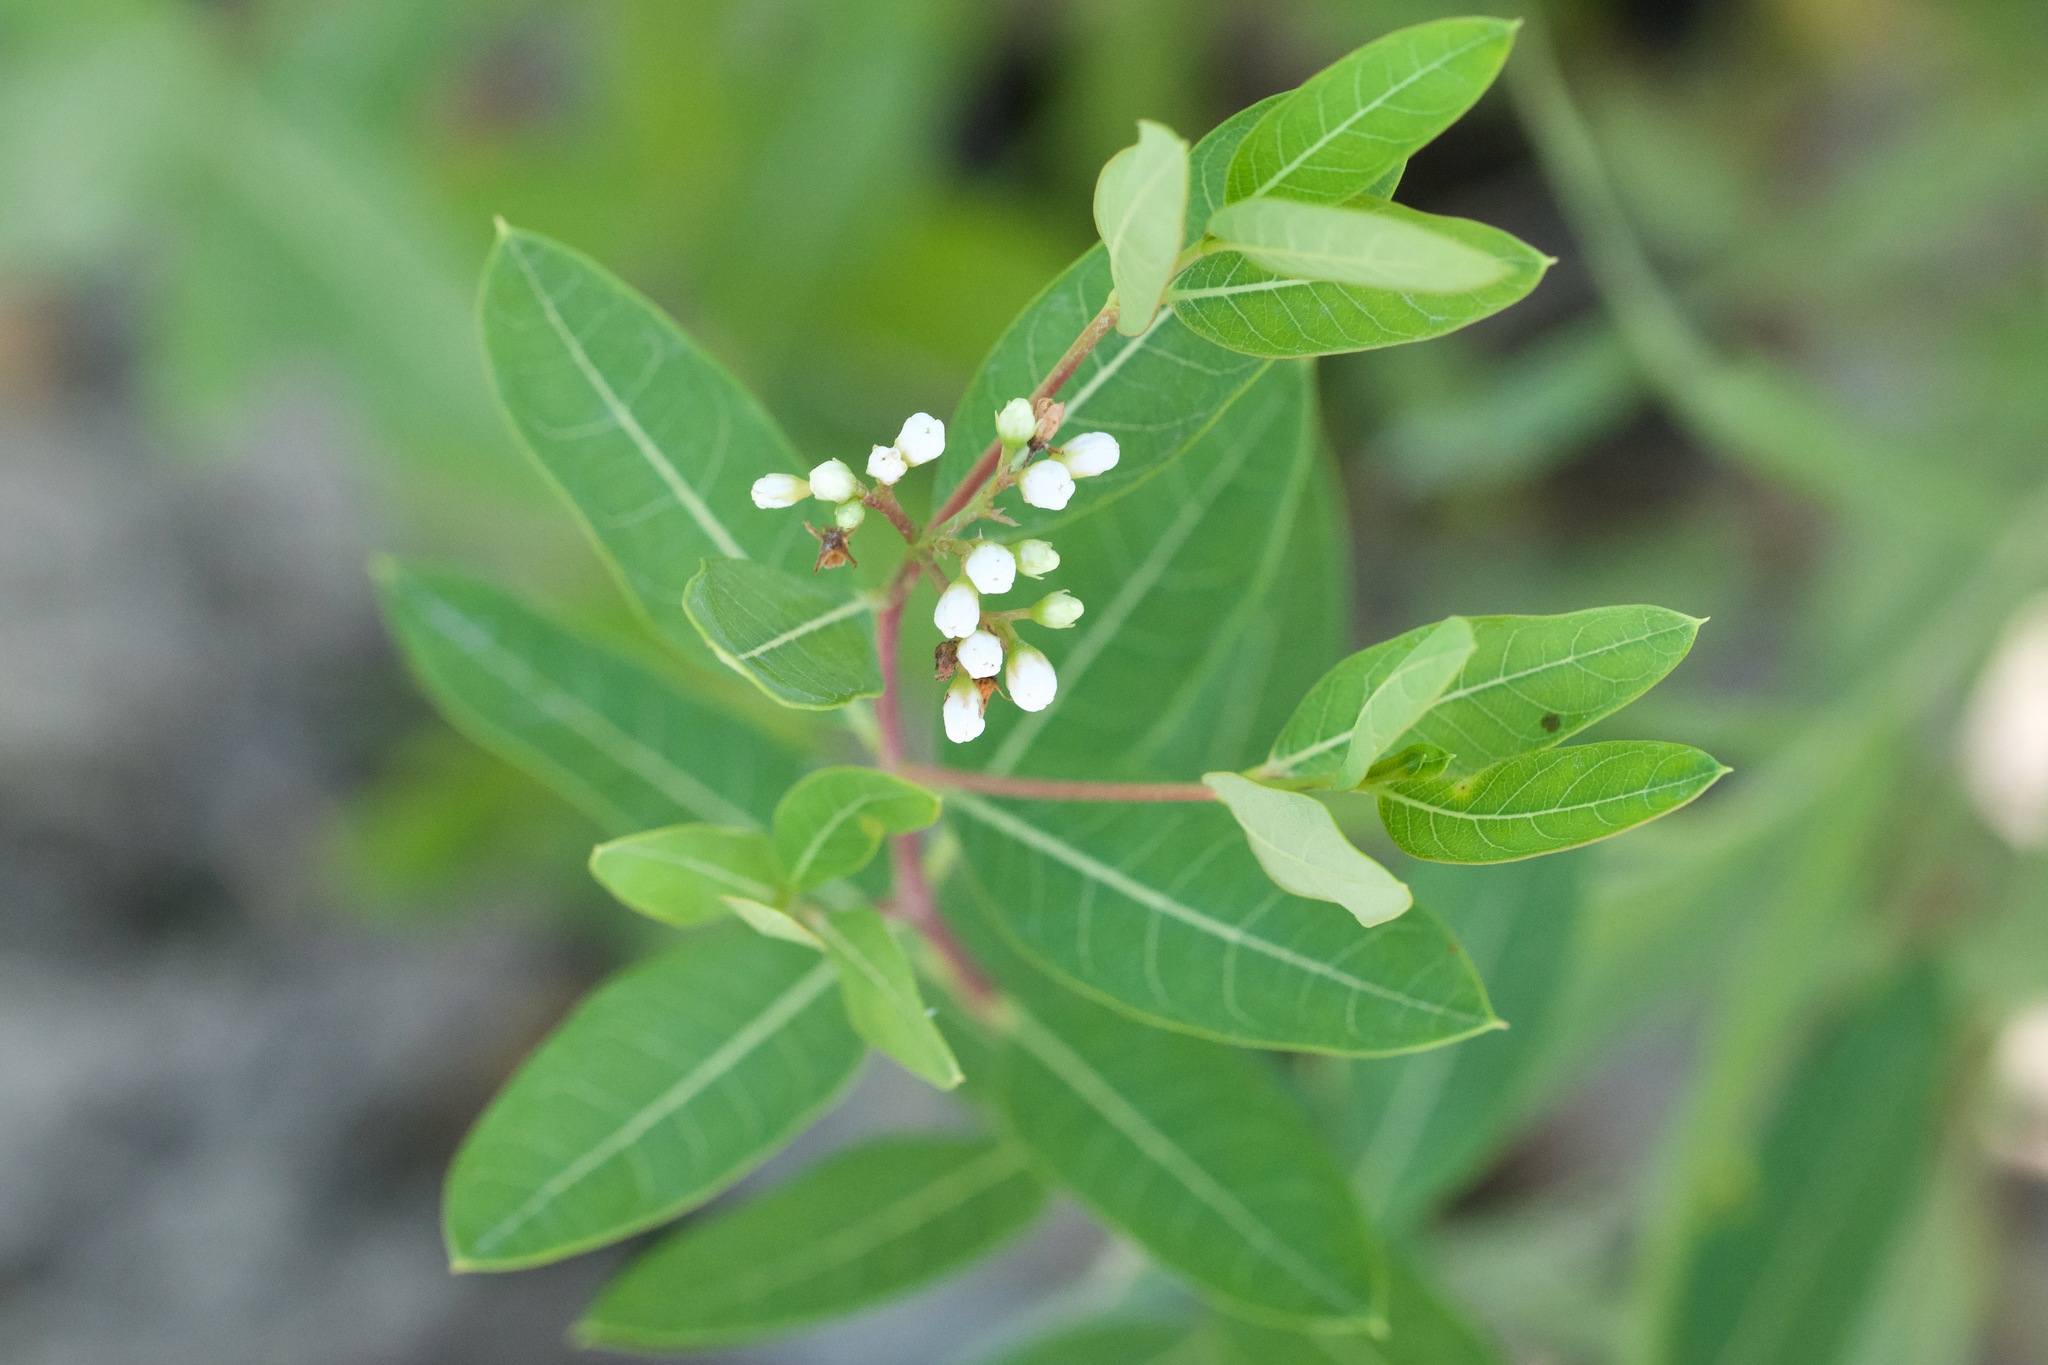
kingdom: Plantae
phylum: Tracheophyta
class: Magnoliopsida
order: Gentianales
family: Apocynaceae
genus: Apocynum
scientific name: Apocynum cannabinum
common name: Hemp dogbane
